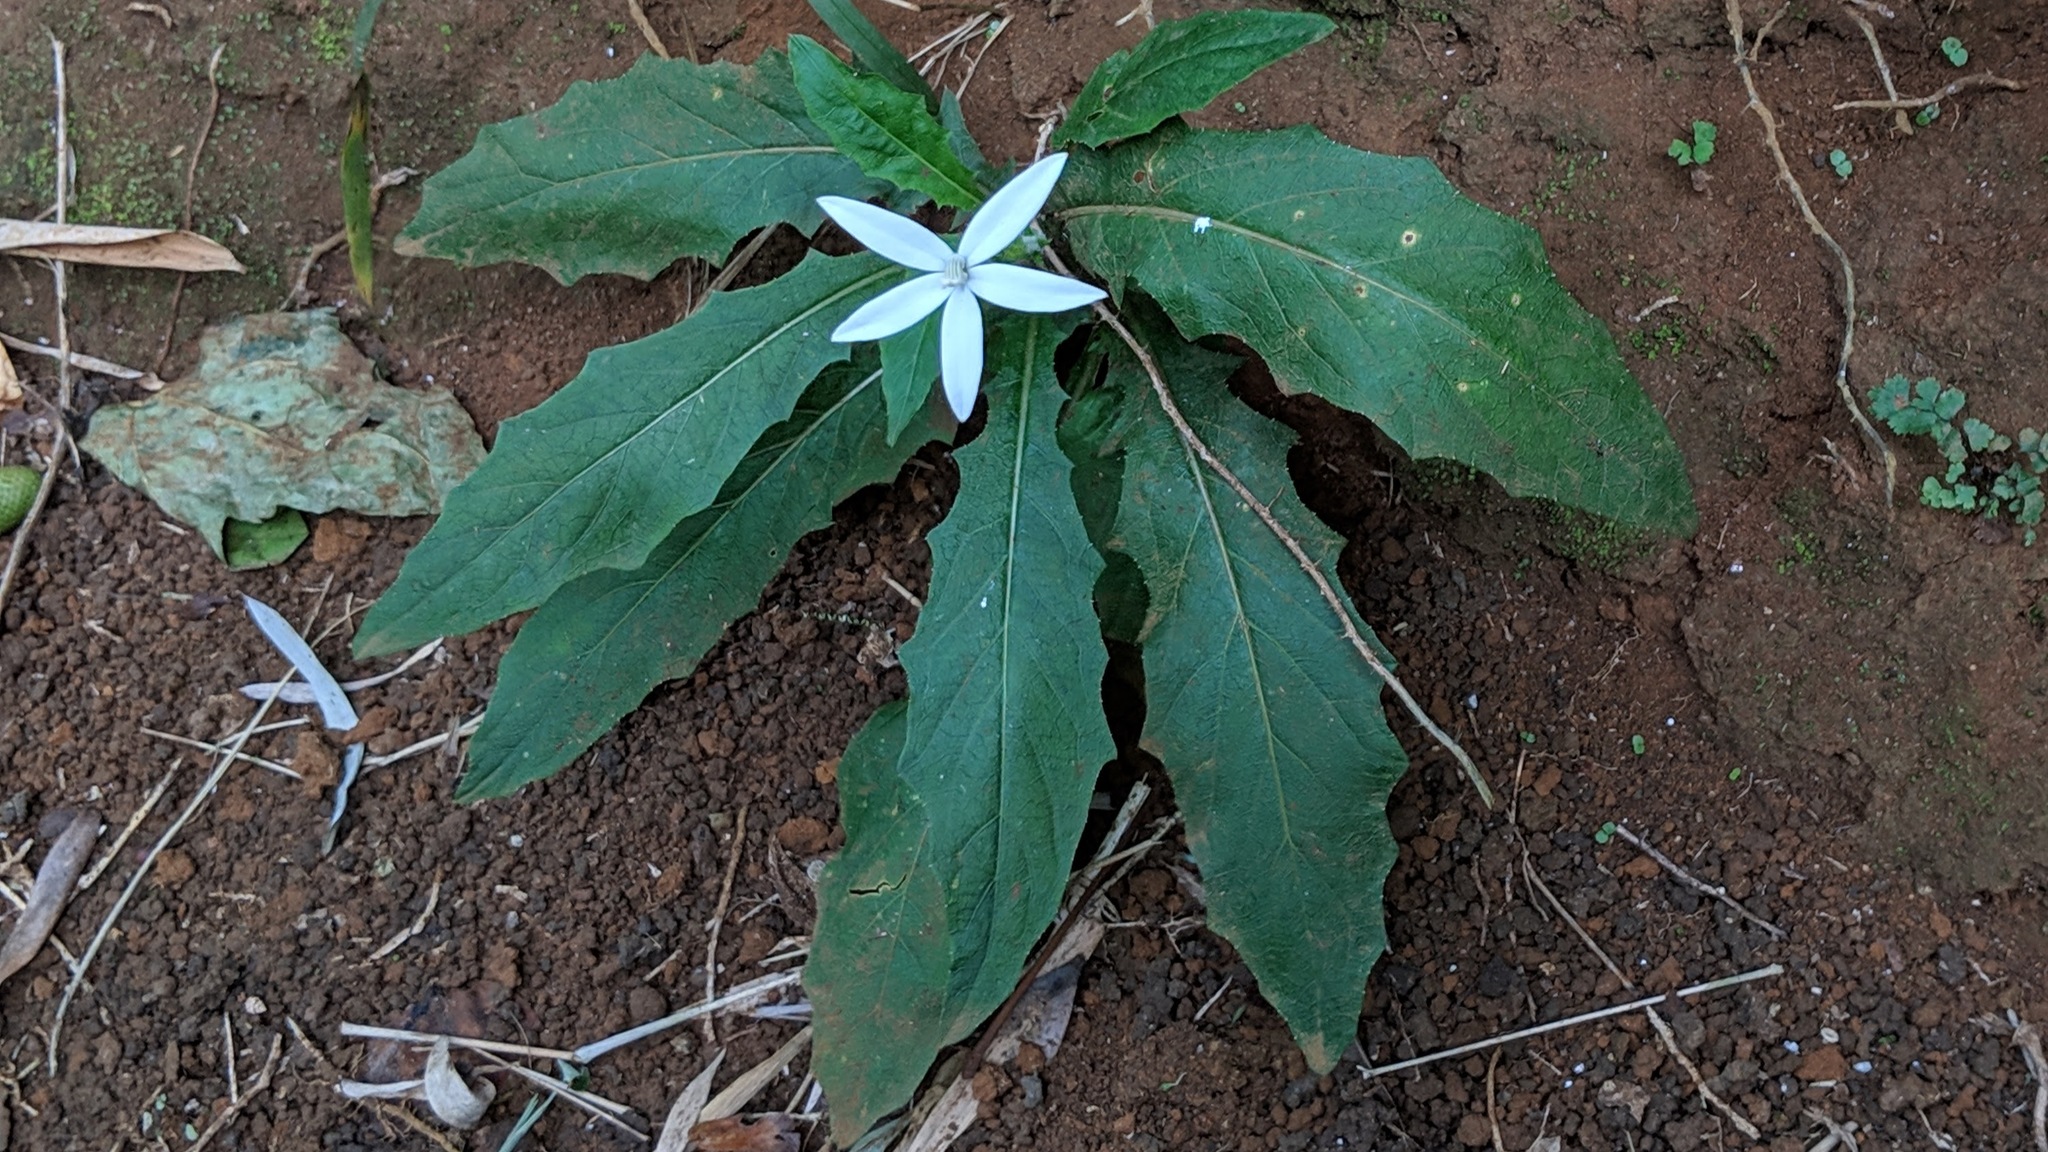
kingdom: Plantae
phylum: Tracheophyta
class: Magnoliopsida
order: Asterales
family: Campanulaceae
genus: Hippobroma
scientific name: Hippobroma longiflora
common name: Madamfate
